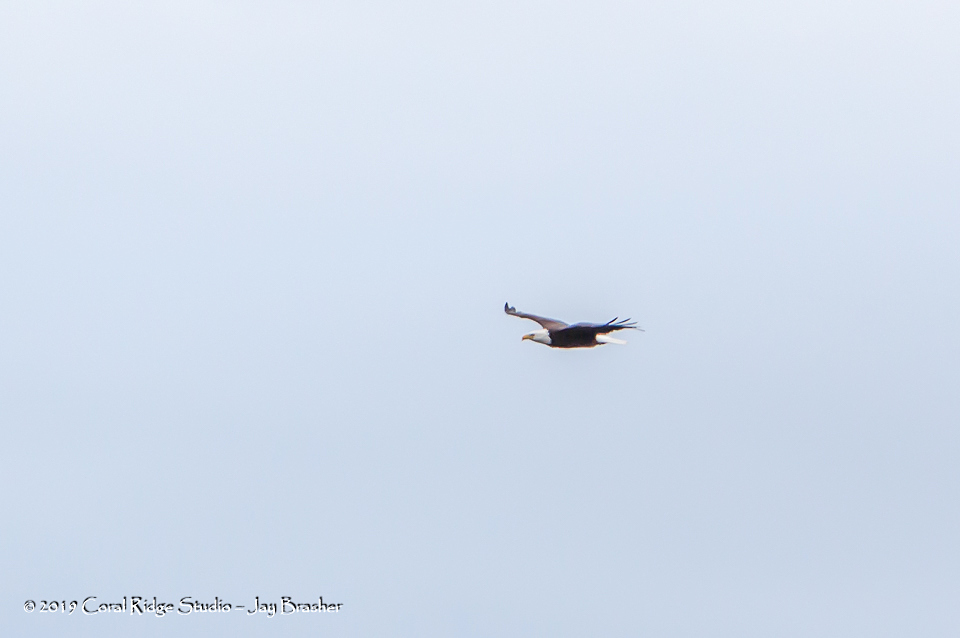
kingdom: Animalia
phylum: Chordata
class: Aves
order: Accipitriformes
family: Accipitridae
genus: Haliaeetus
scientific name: Haliaeetus leucocephalus
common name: Bald eagle
